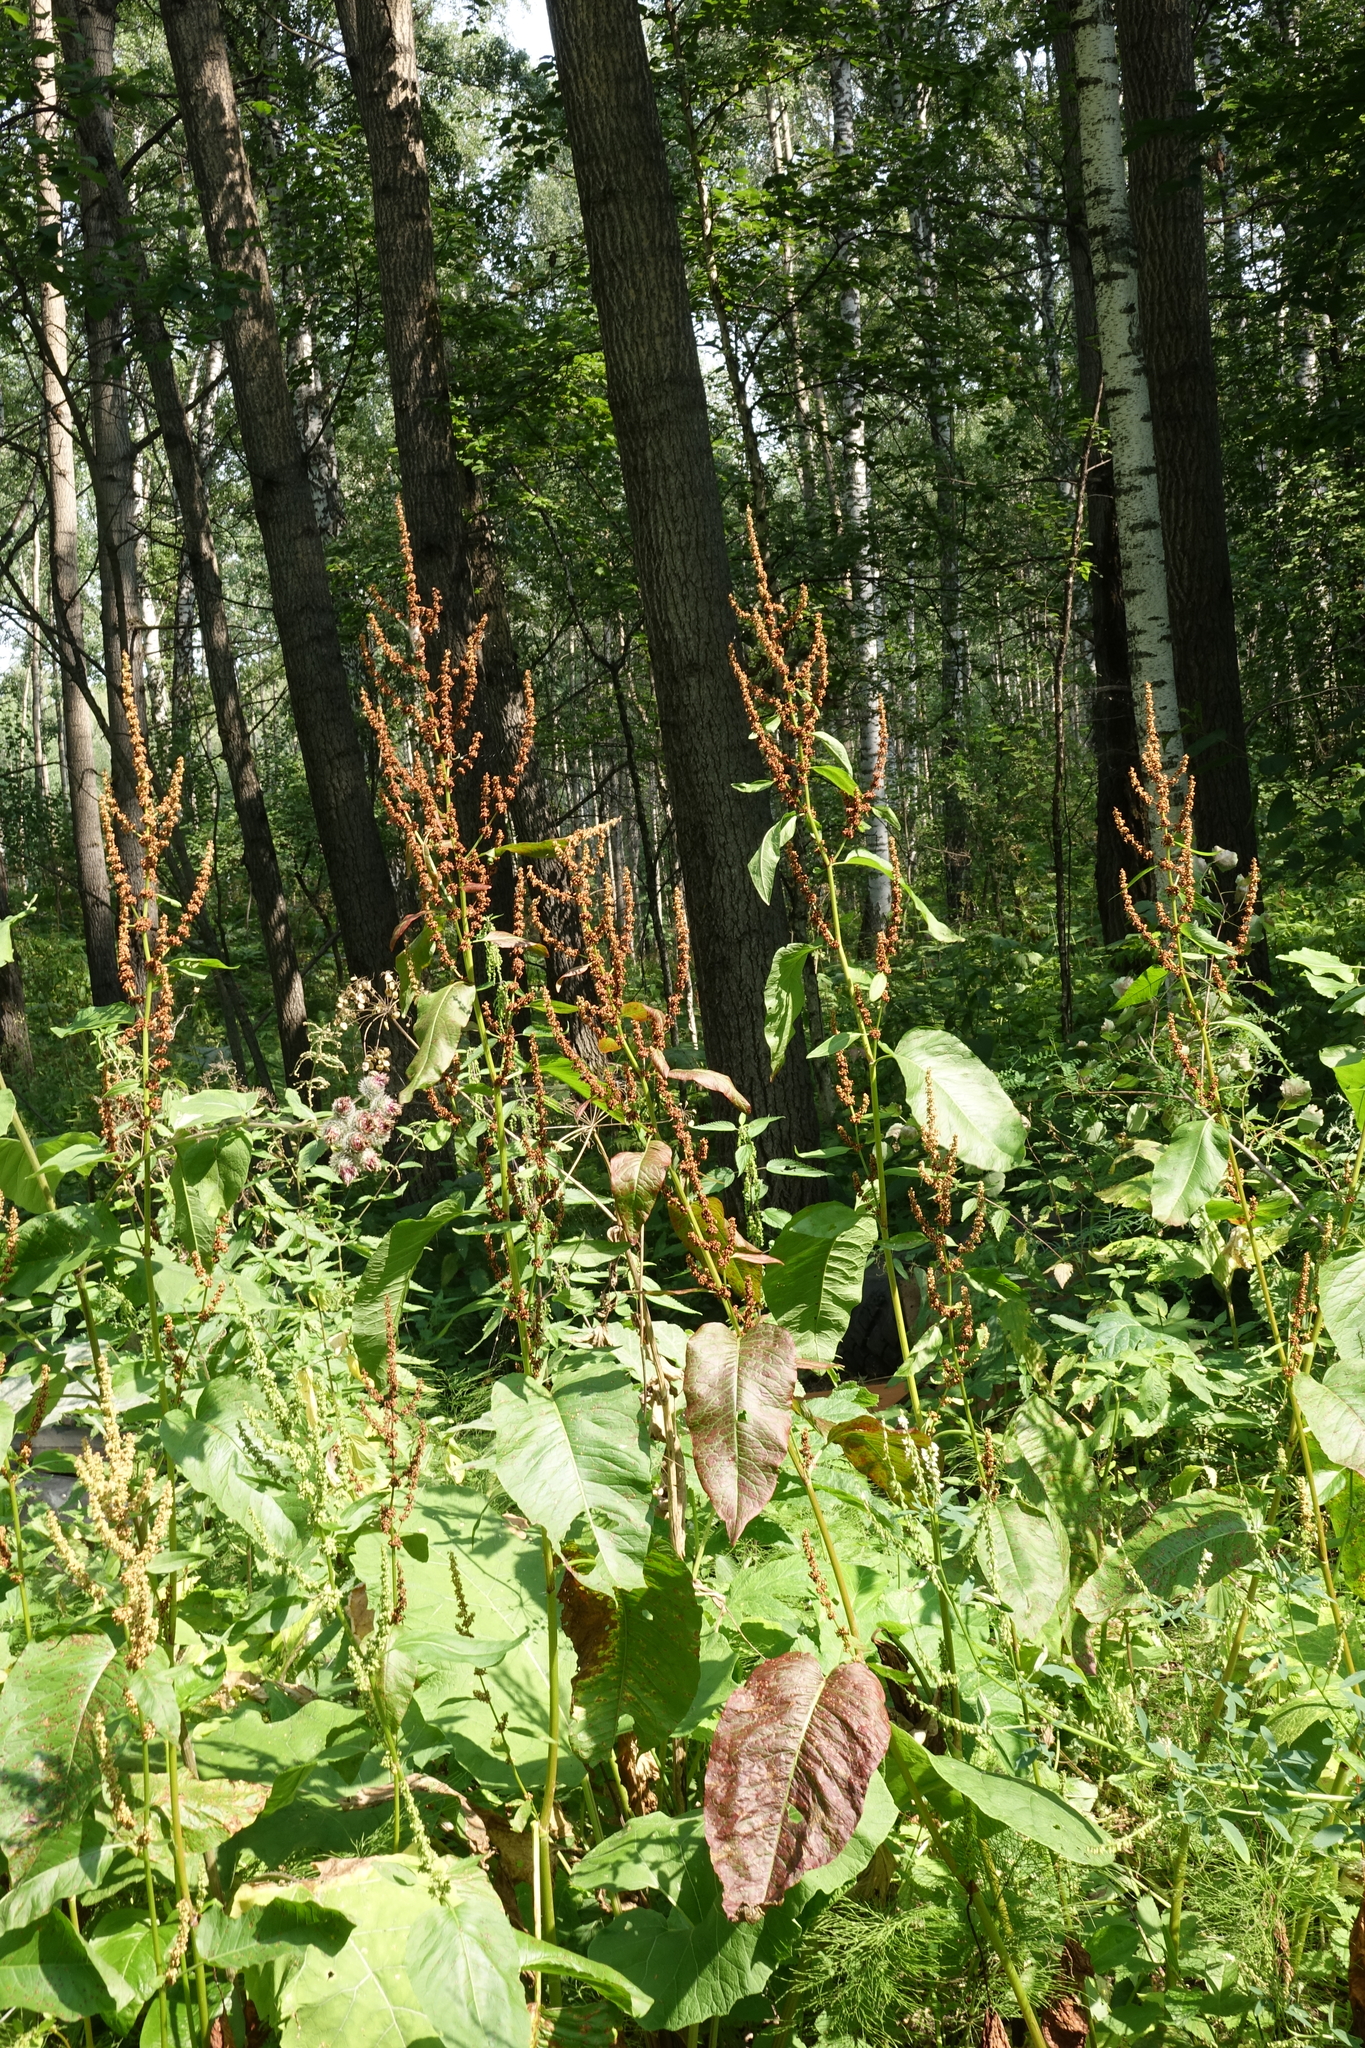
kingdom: Plantae
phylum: Tracheophyta
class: Magnoliopsida
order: Caryophyllales
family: Polygonaceae
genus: Rumex
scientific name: Rumex obtusifolius
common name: Bitter dock
